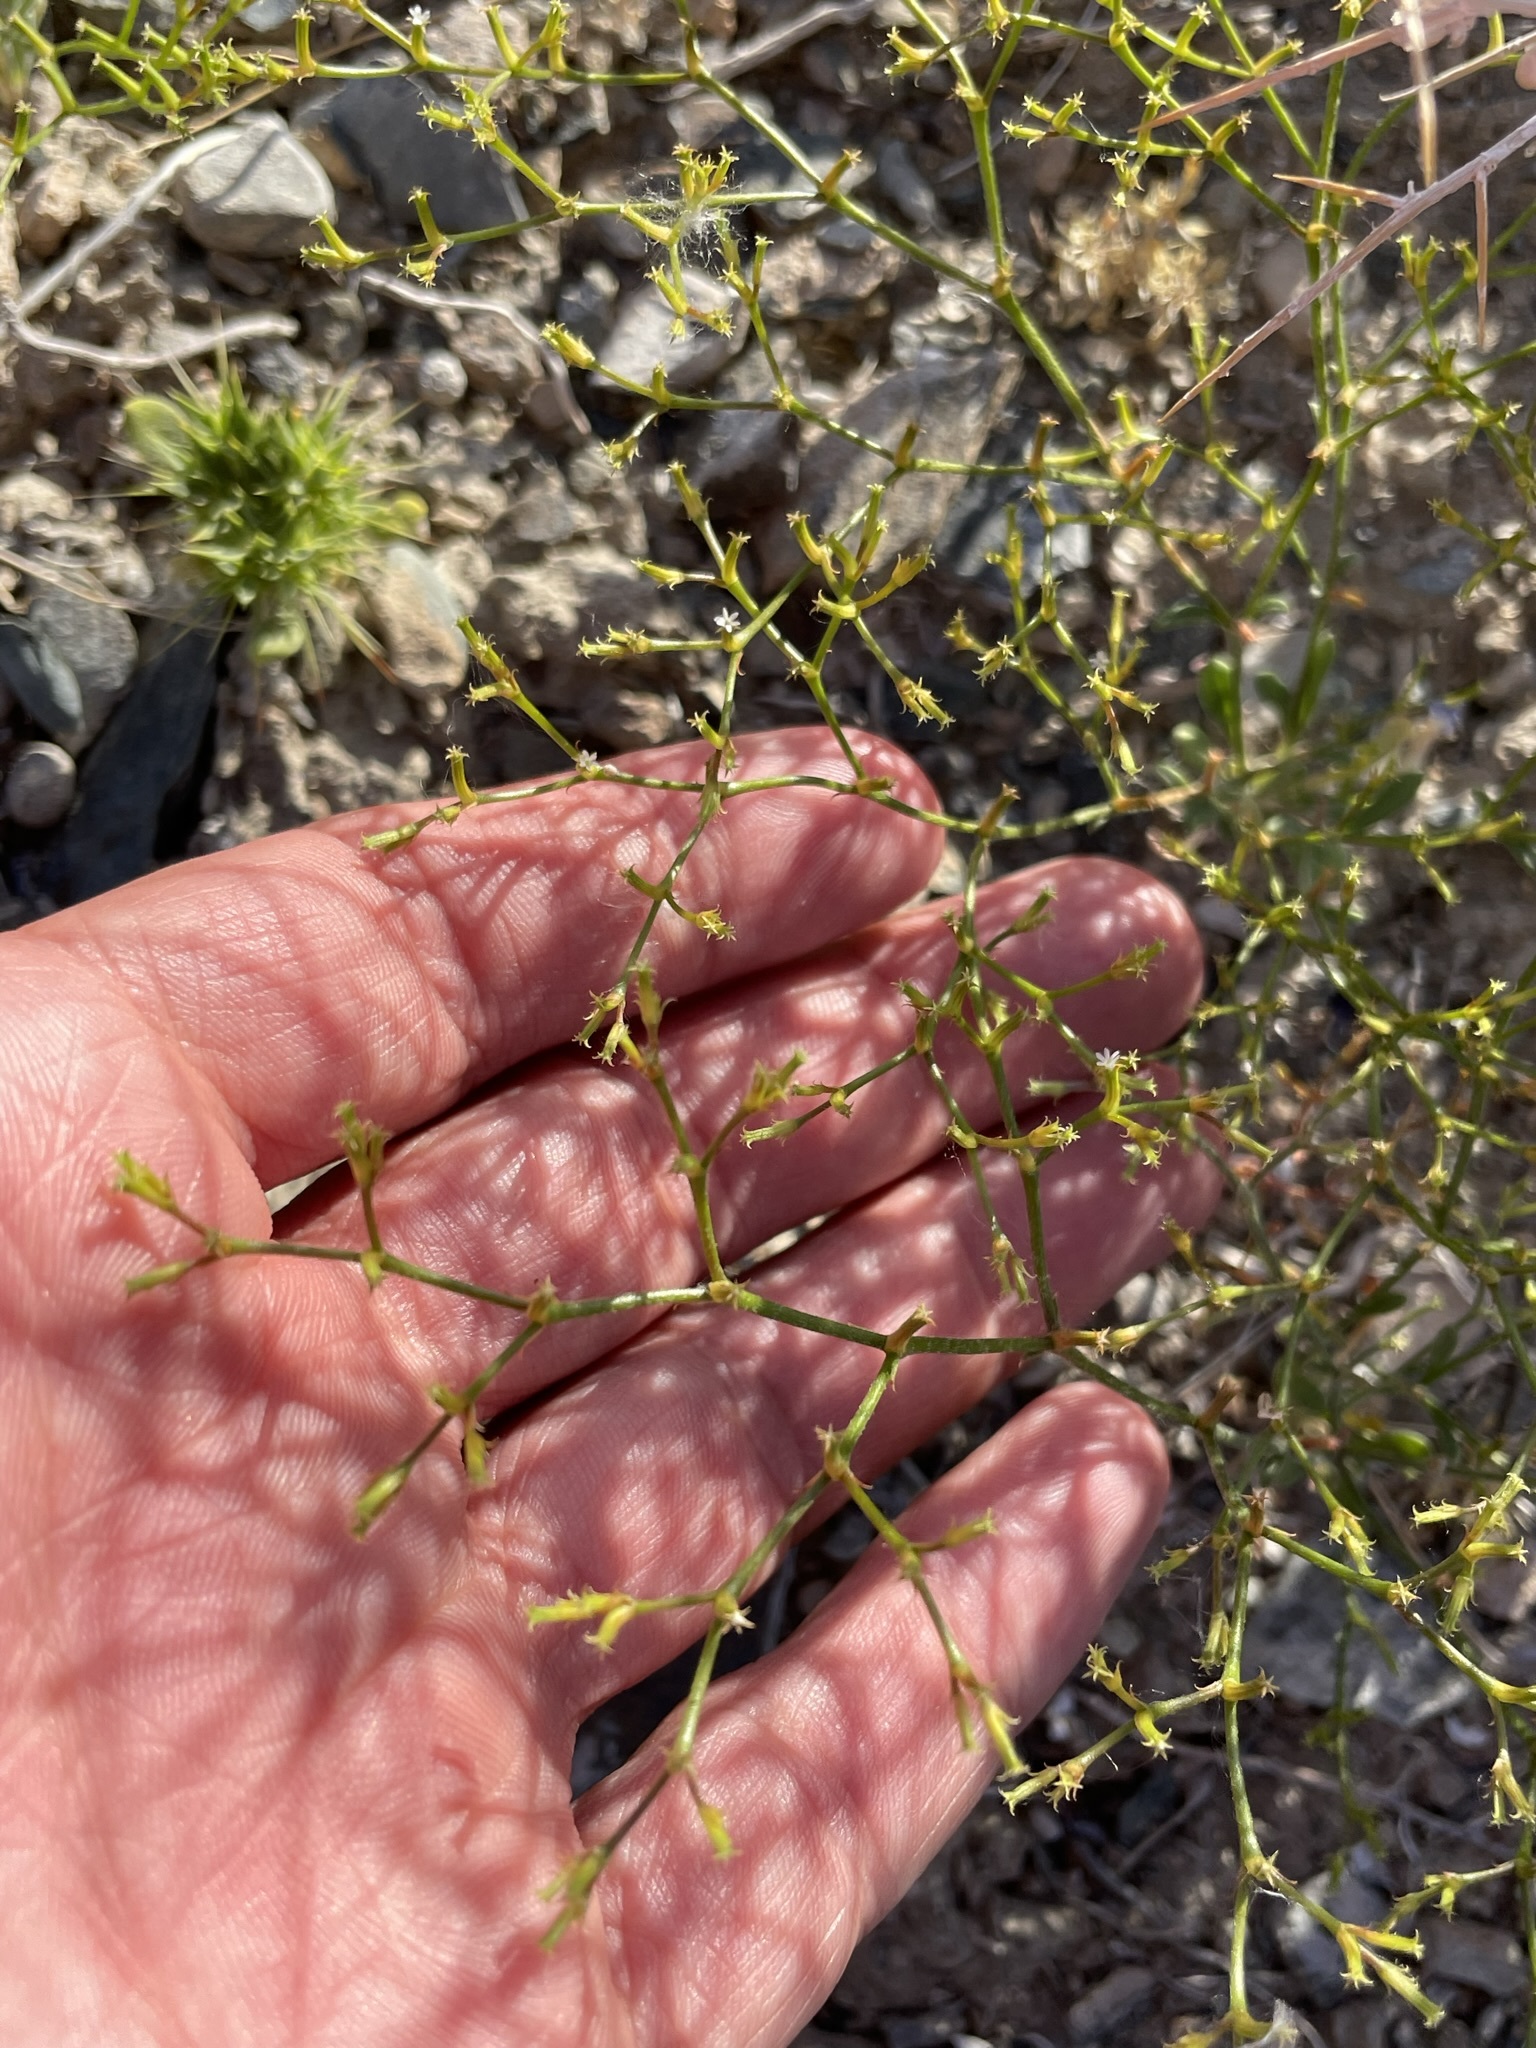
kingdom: Plantae
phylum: Tracheophyta
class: Magnoliopsida
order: Caryophyllales
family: Polygonaceae
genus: Chorizanthe
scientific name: Chorizanthe brevicornu
